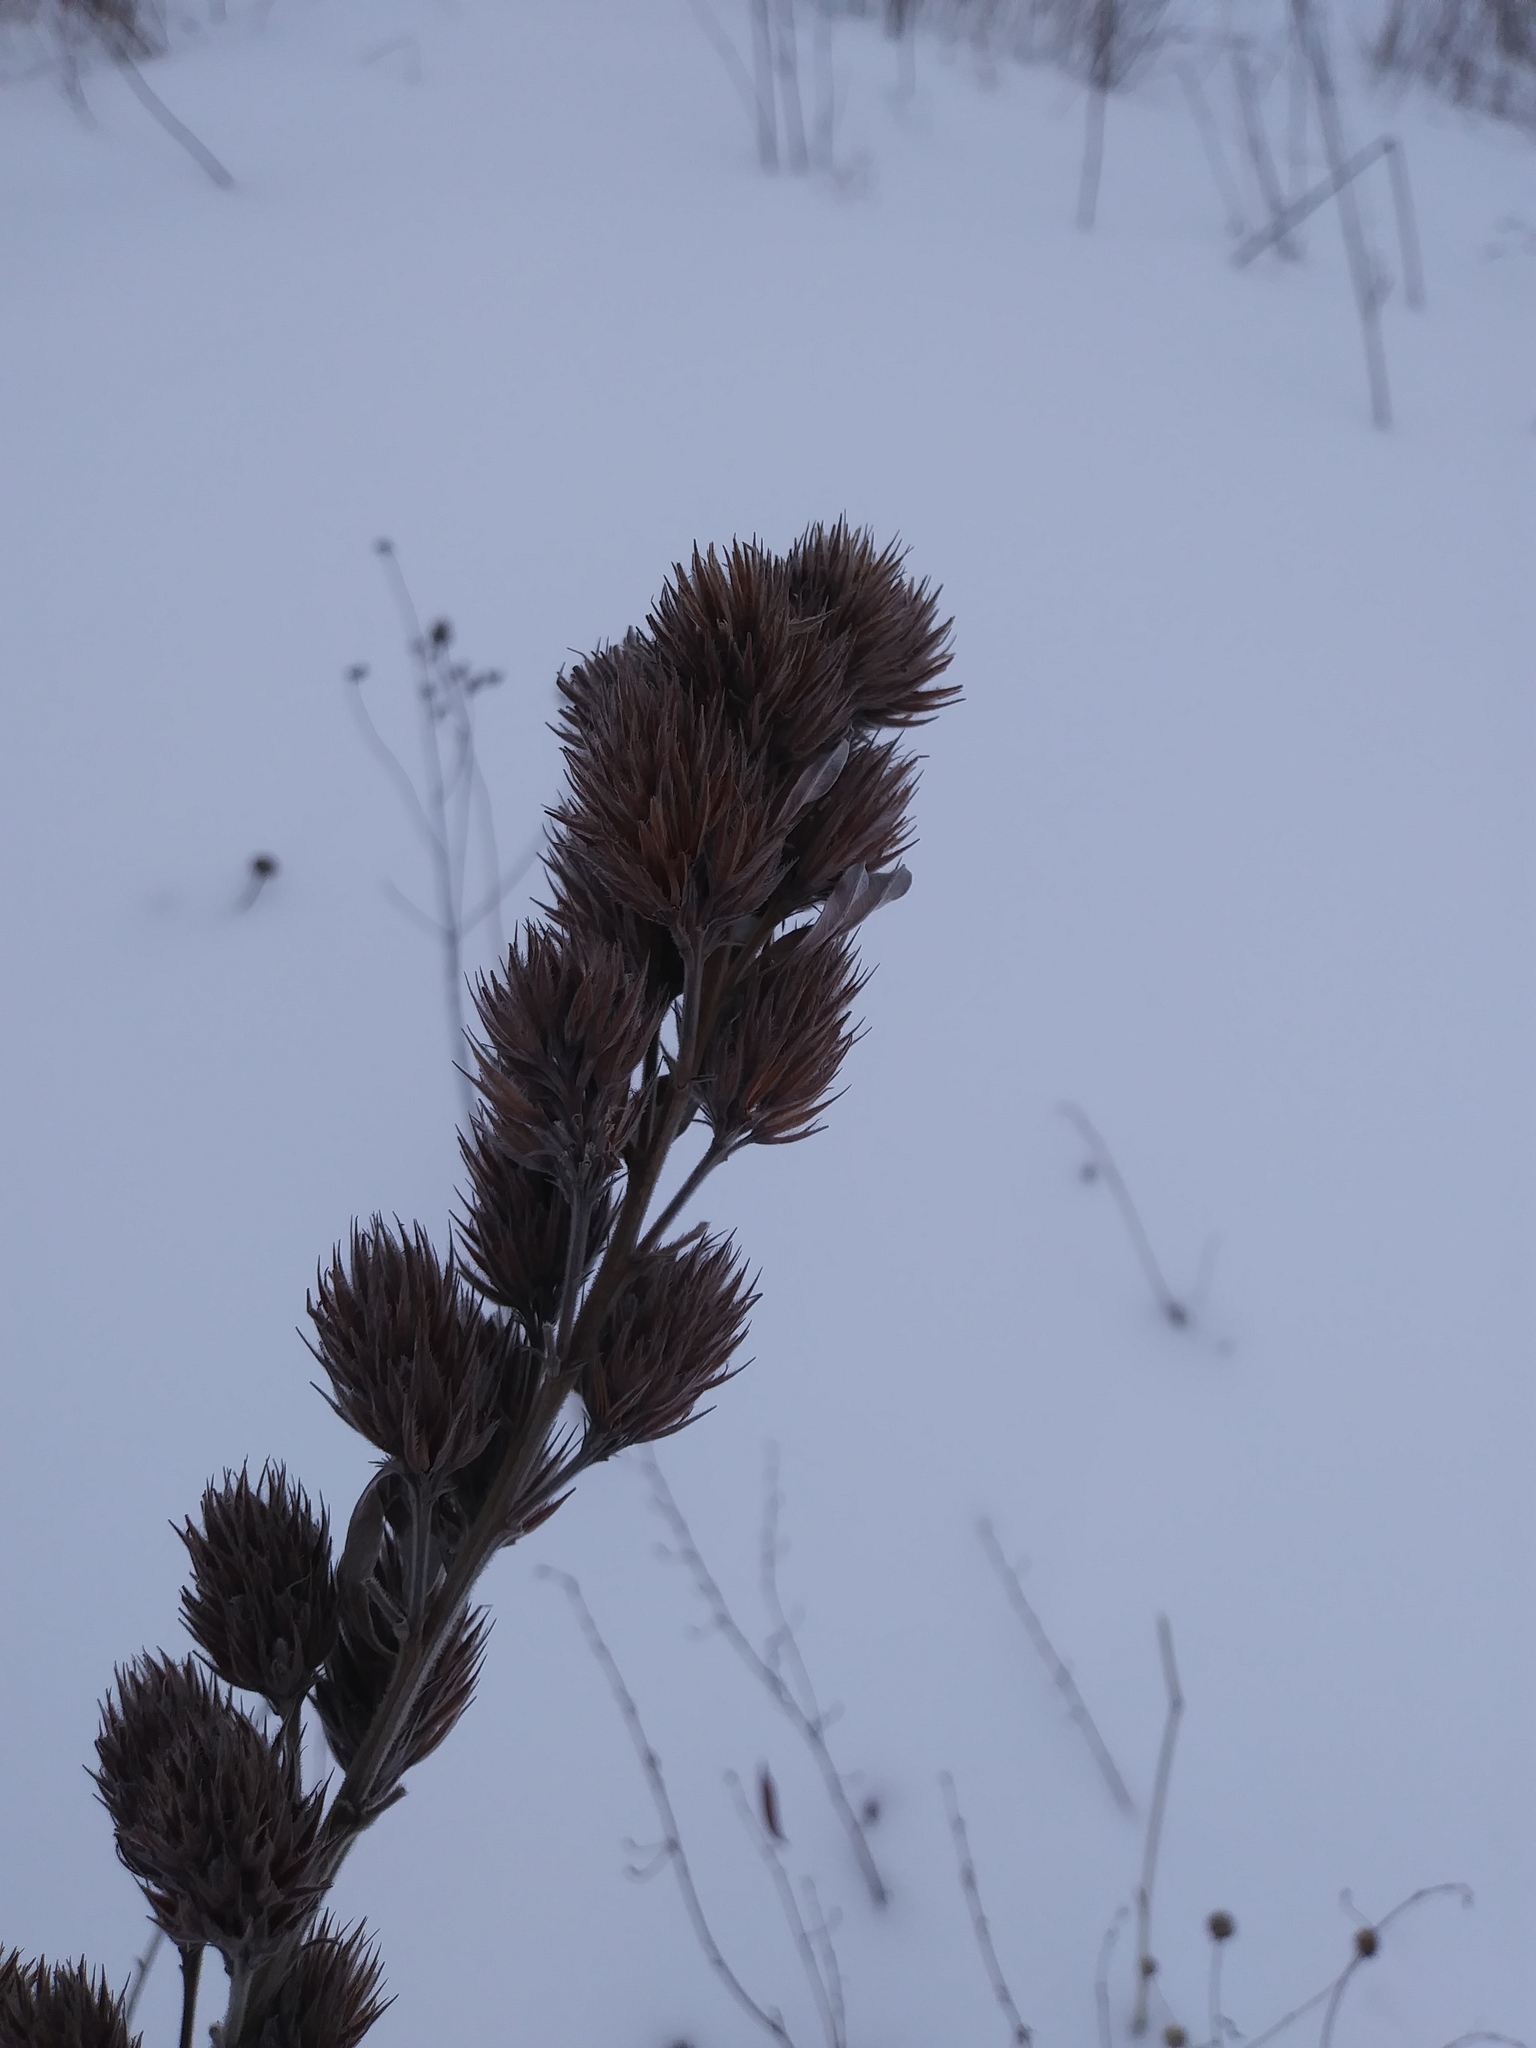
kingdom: Plantae
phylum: Tracheophyta
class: Magnoliopsida
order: Fabales
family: Fabaceae
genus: Lespedeza
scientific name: Lespedeza capitata
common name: Dusty clover
